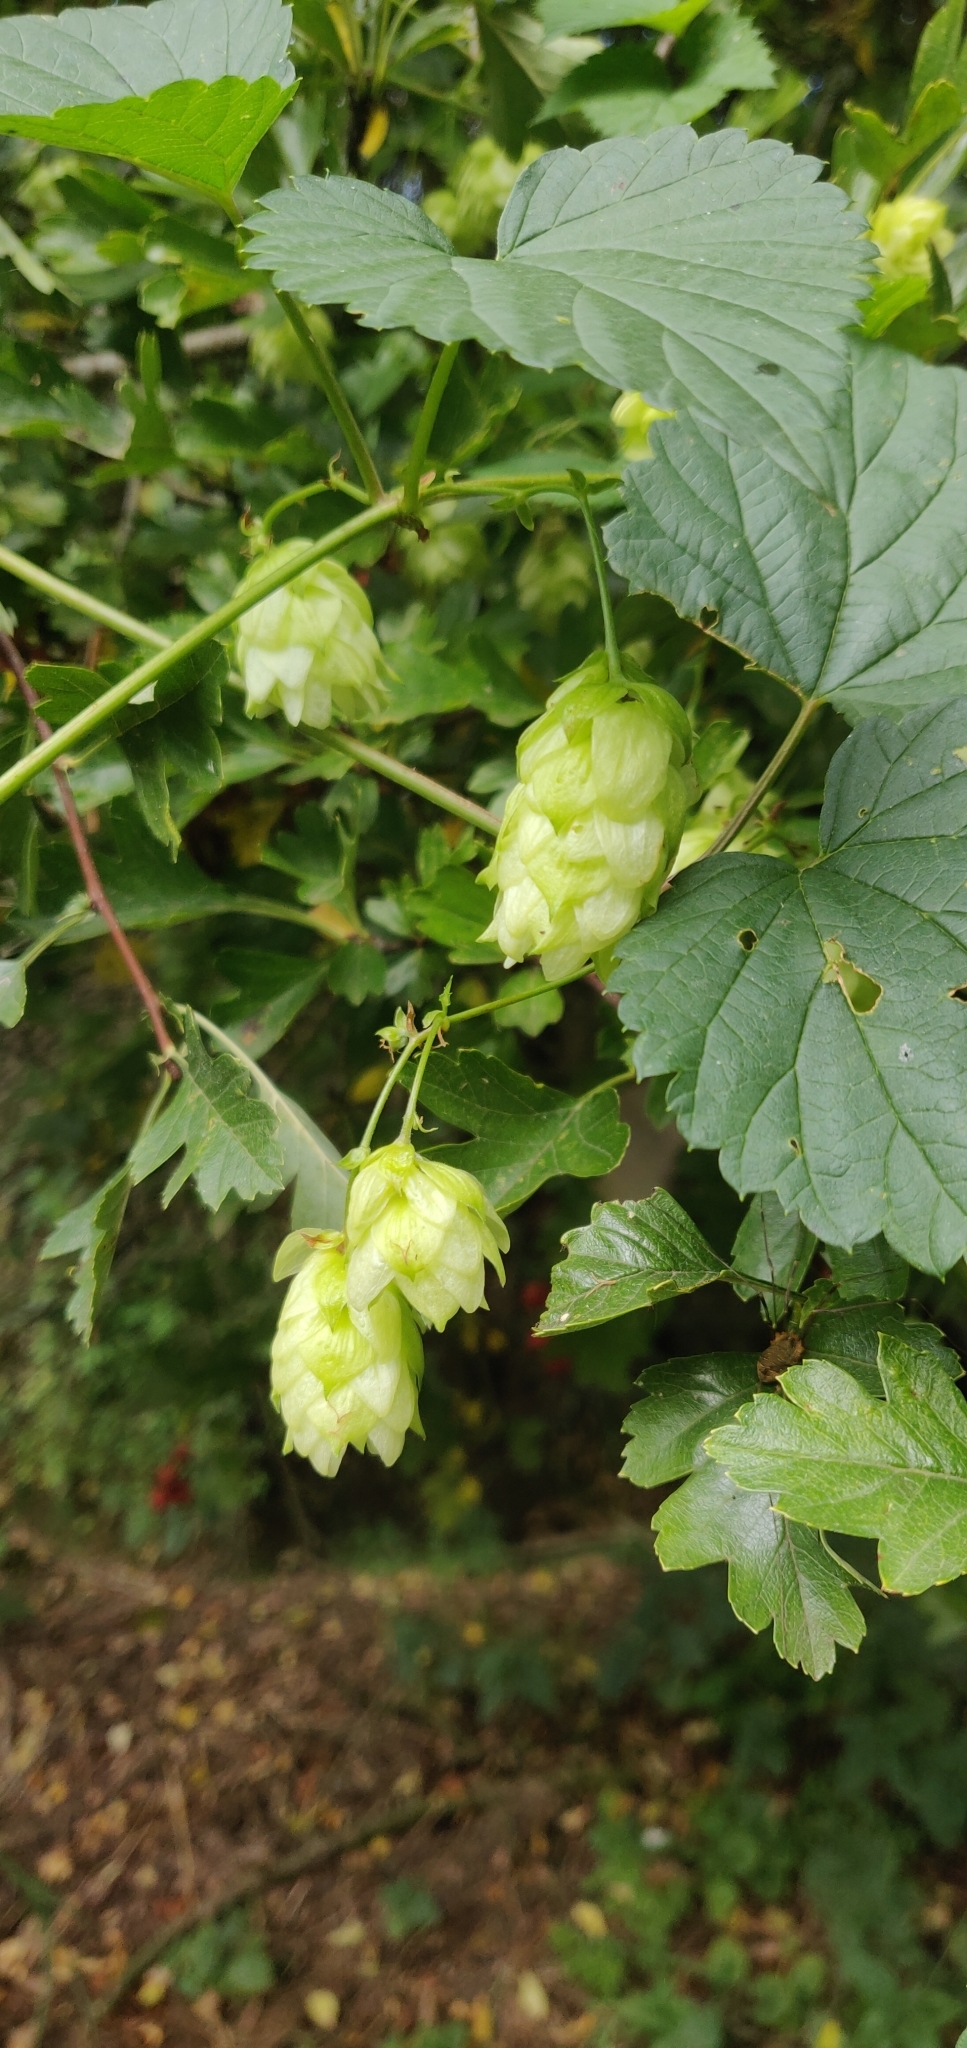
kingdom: Plantae
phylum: Tracheophyta
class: Magnoliopsida
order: Rosales
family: Cannabaceae
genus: Humulus
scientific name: Humulus lupulus
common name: Hop
